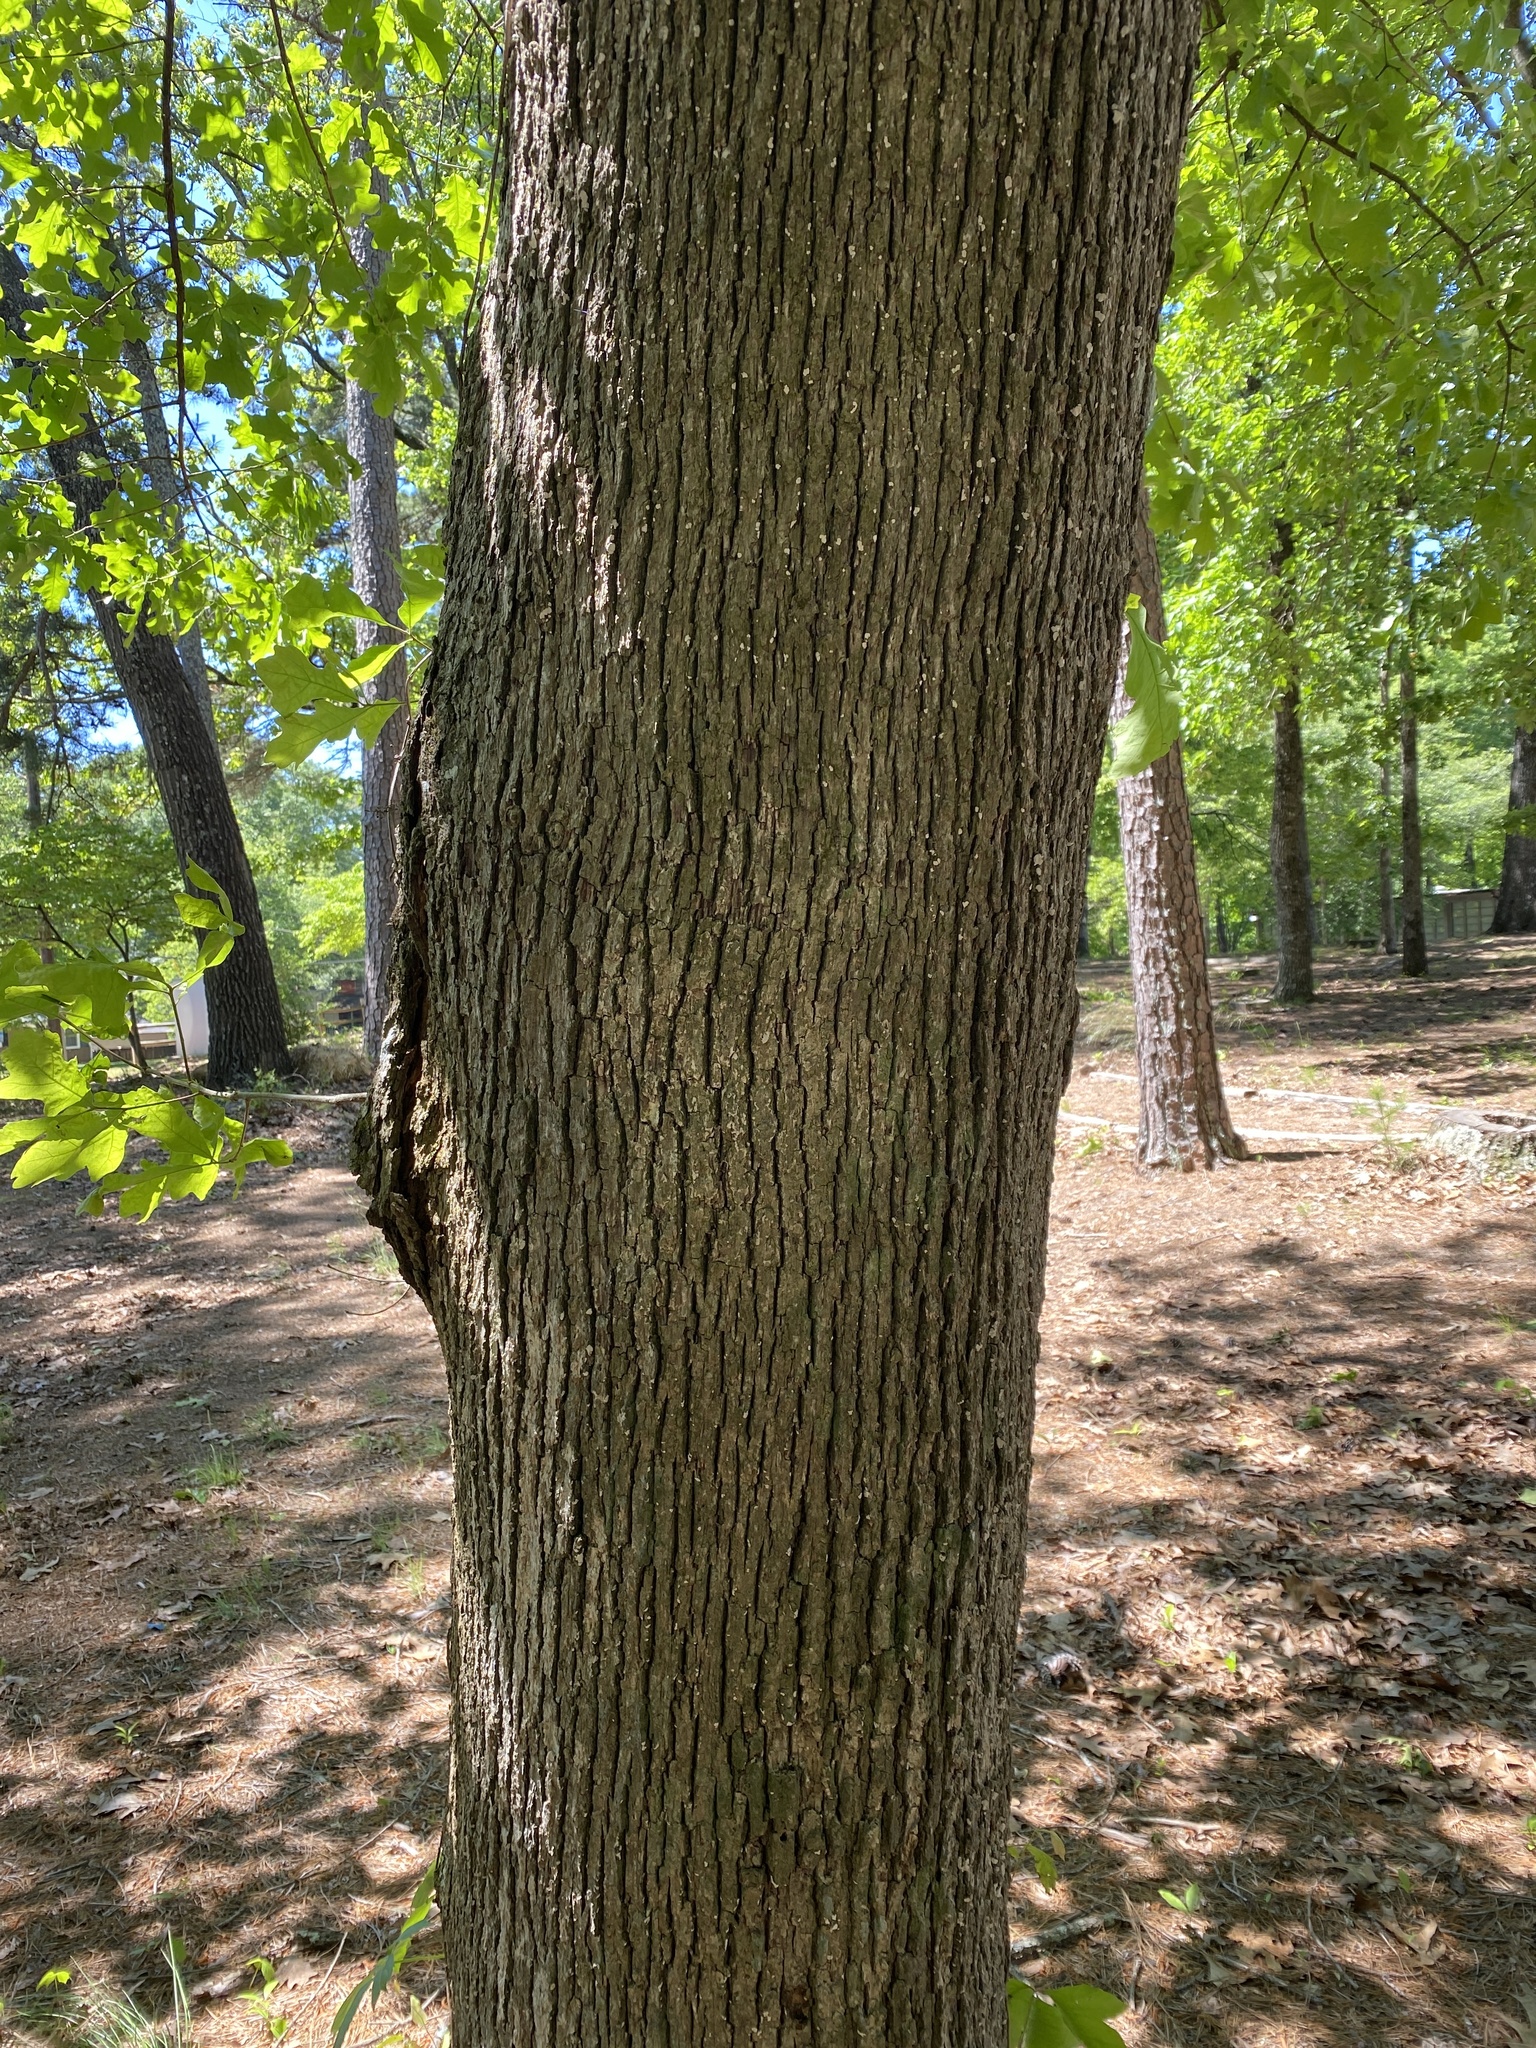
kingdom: Plantae
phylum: Tracheophyta
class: Magnoliopsida
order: Fagales
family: Fagaceae
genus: Quercus
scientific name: Quercus stellata
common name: Post oak
